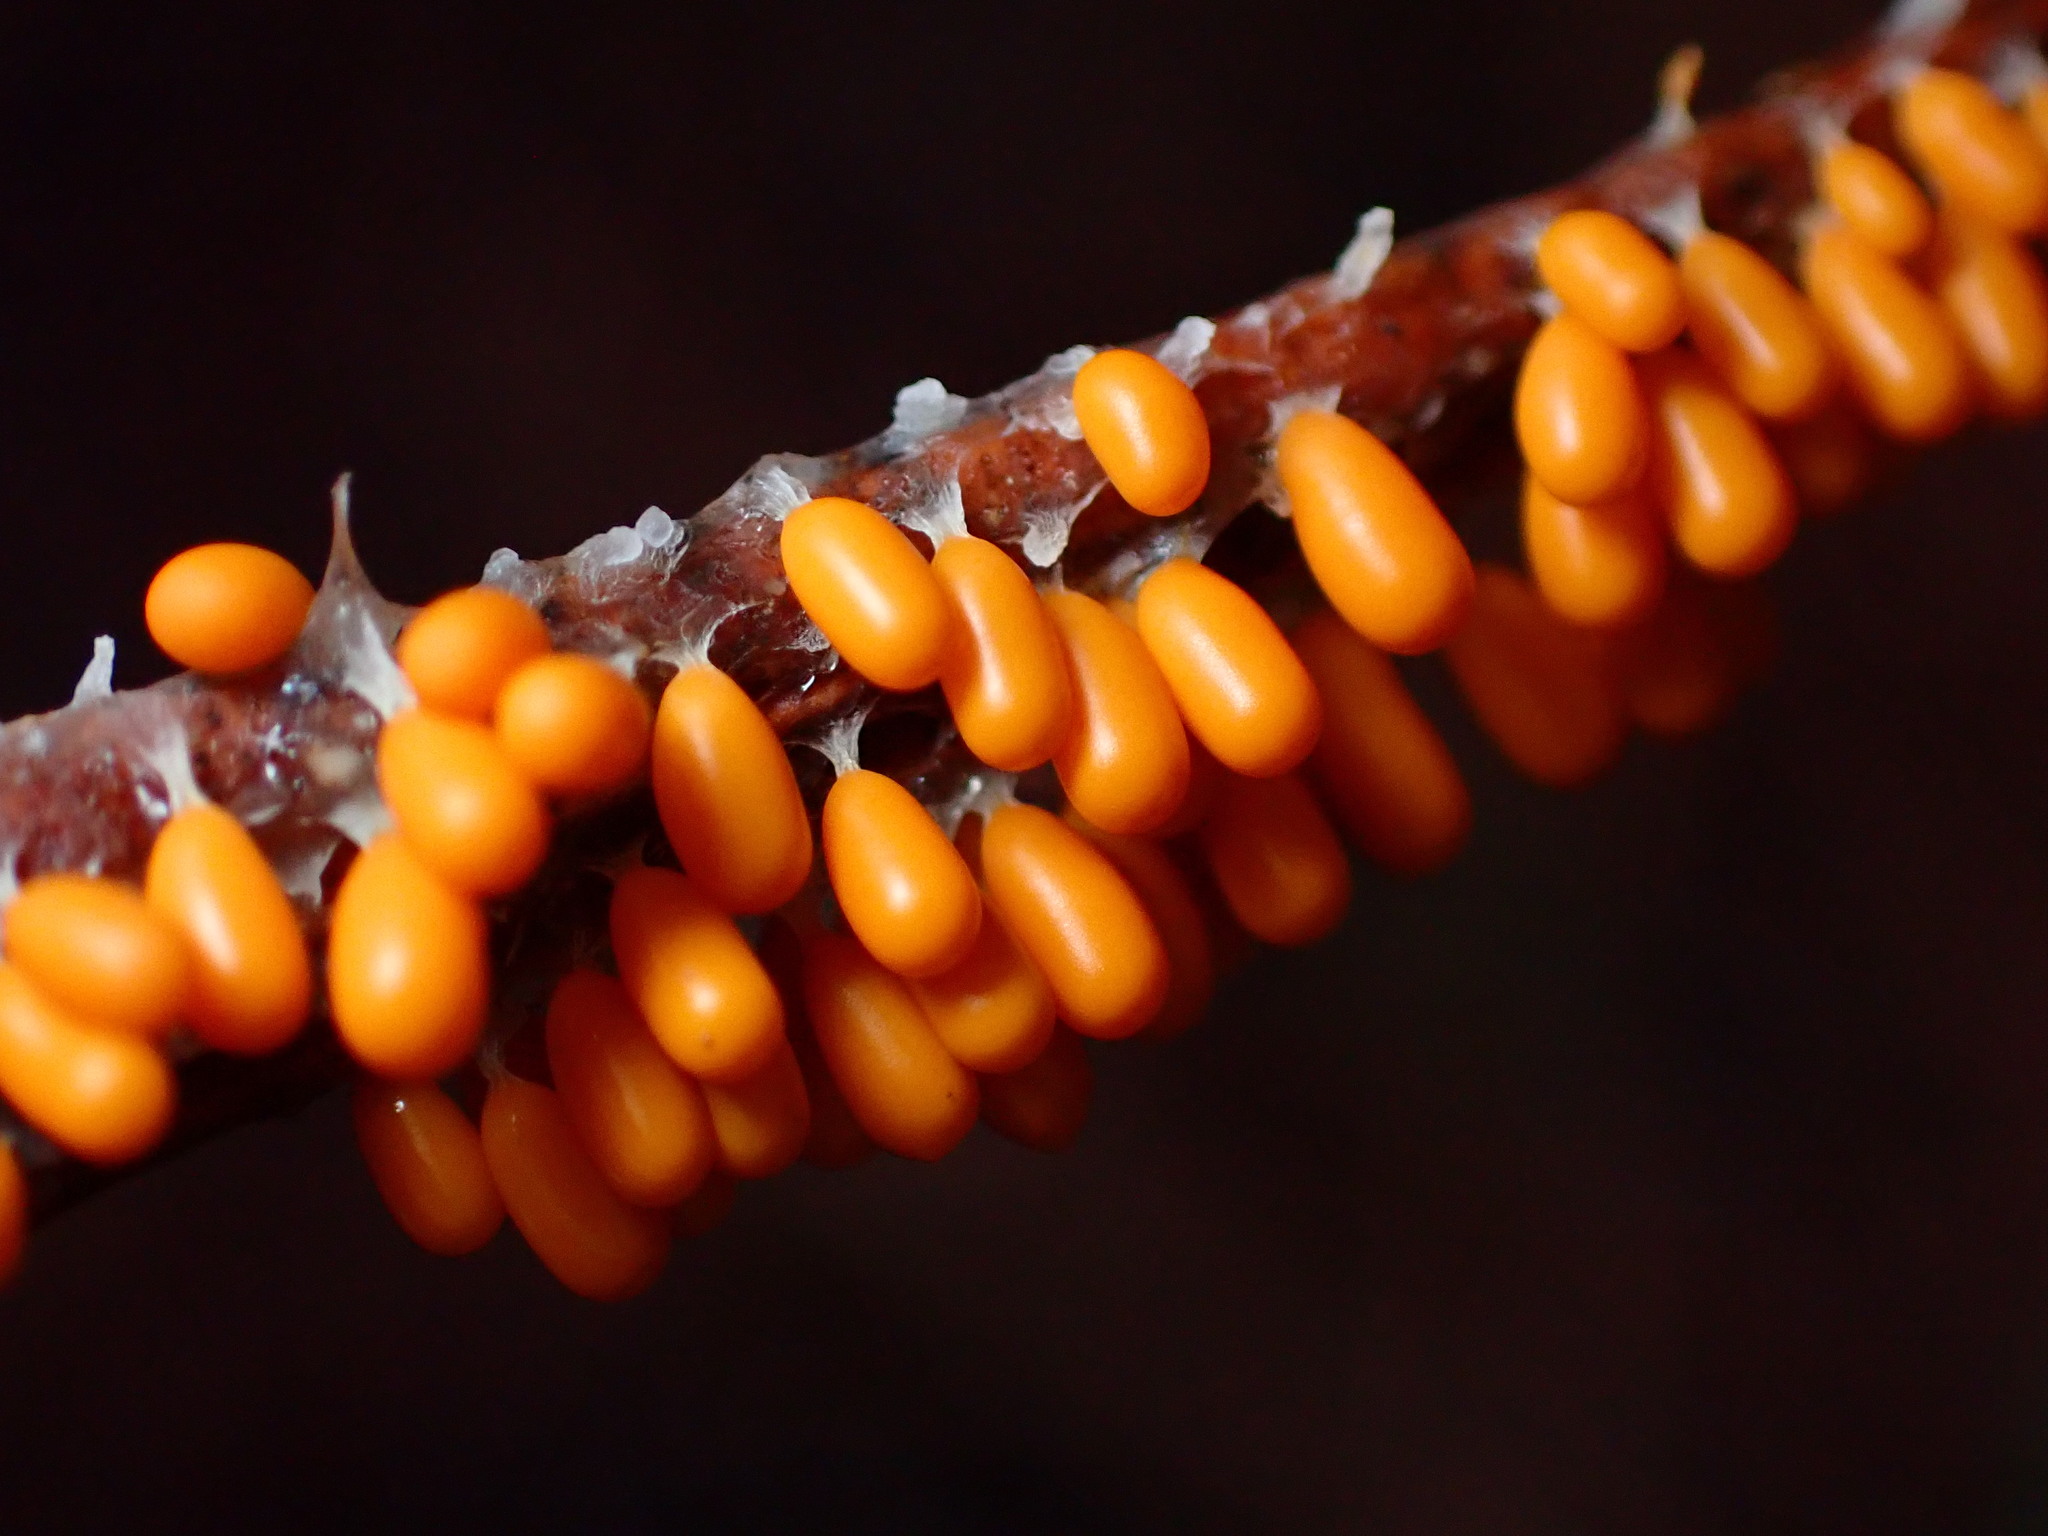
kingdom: Protozoa
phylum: Mycetozoa
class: Myxomycetes
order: Physarales
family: Physaraceae
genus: Leocarpus
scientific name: Leocarpus fragilis
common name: Insect-egg slime
